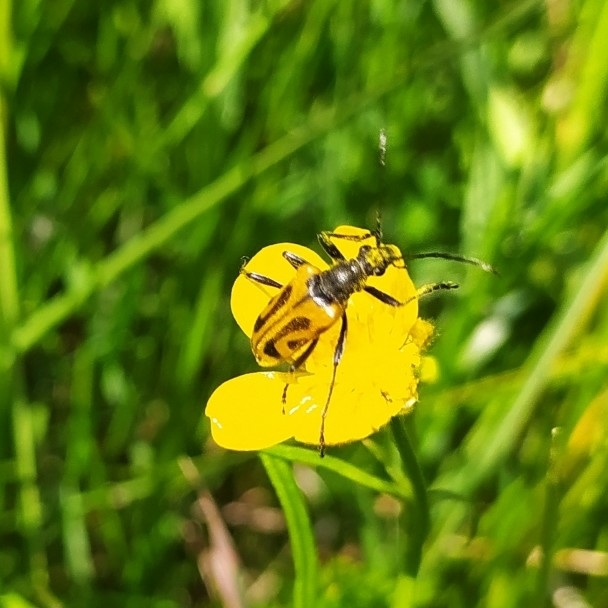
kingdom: Animalia
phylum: Arthropoda
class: Insecta
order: Coleoptera
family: Cerambycidae
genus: Brachyta
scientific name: Brachyta interrogationis
